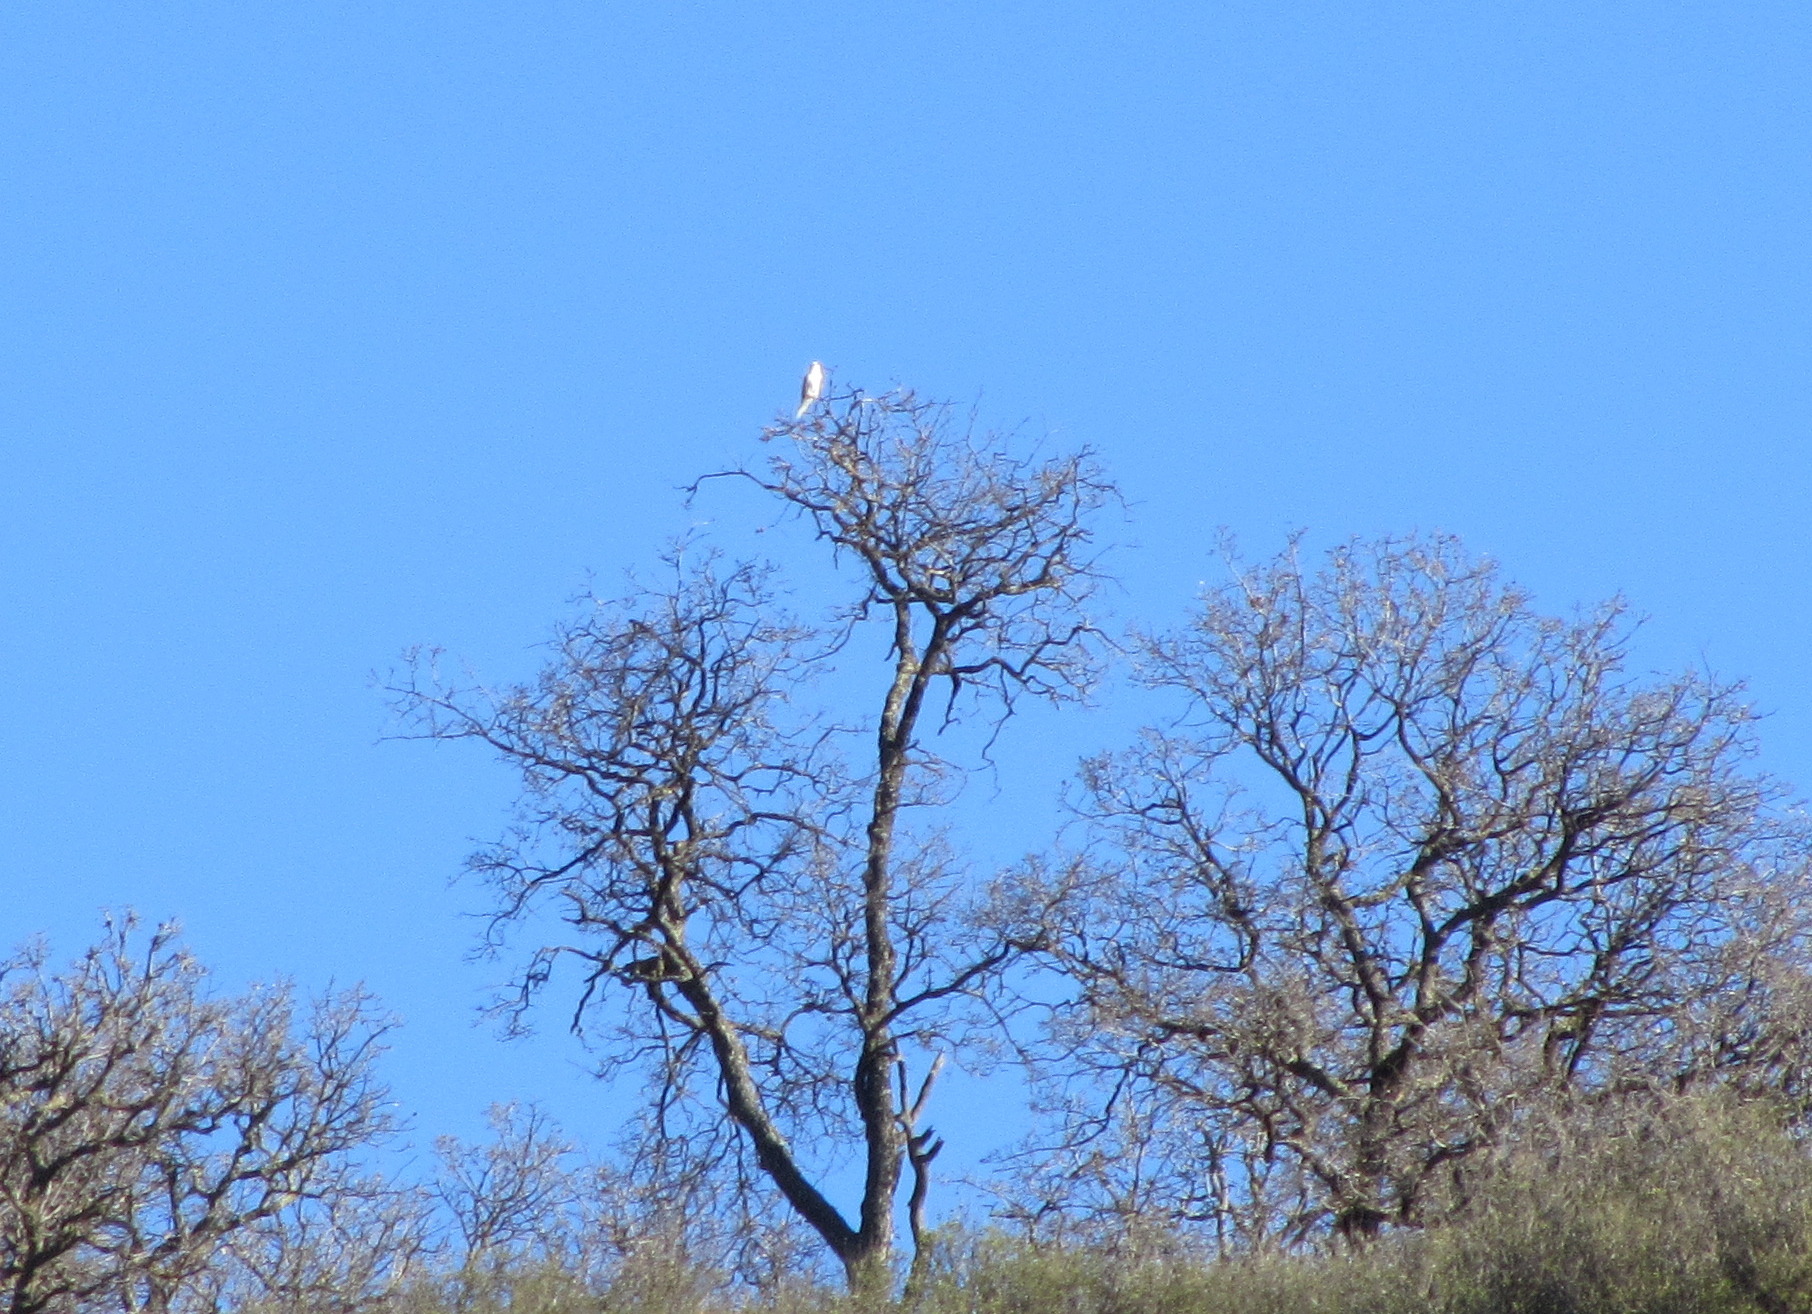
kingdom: Animalia
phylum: Chordata
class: Aves
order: Accipitriformes
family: Accipitridae
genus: Elanus
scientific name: Elanus leucurus
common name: White-tailed kite
